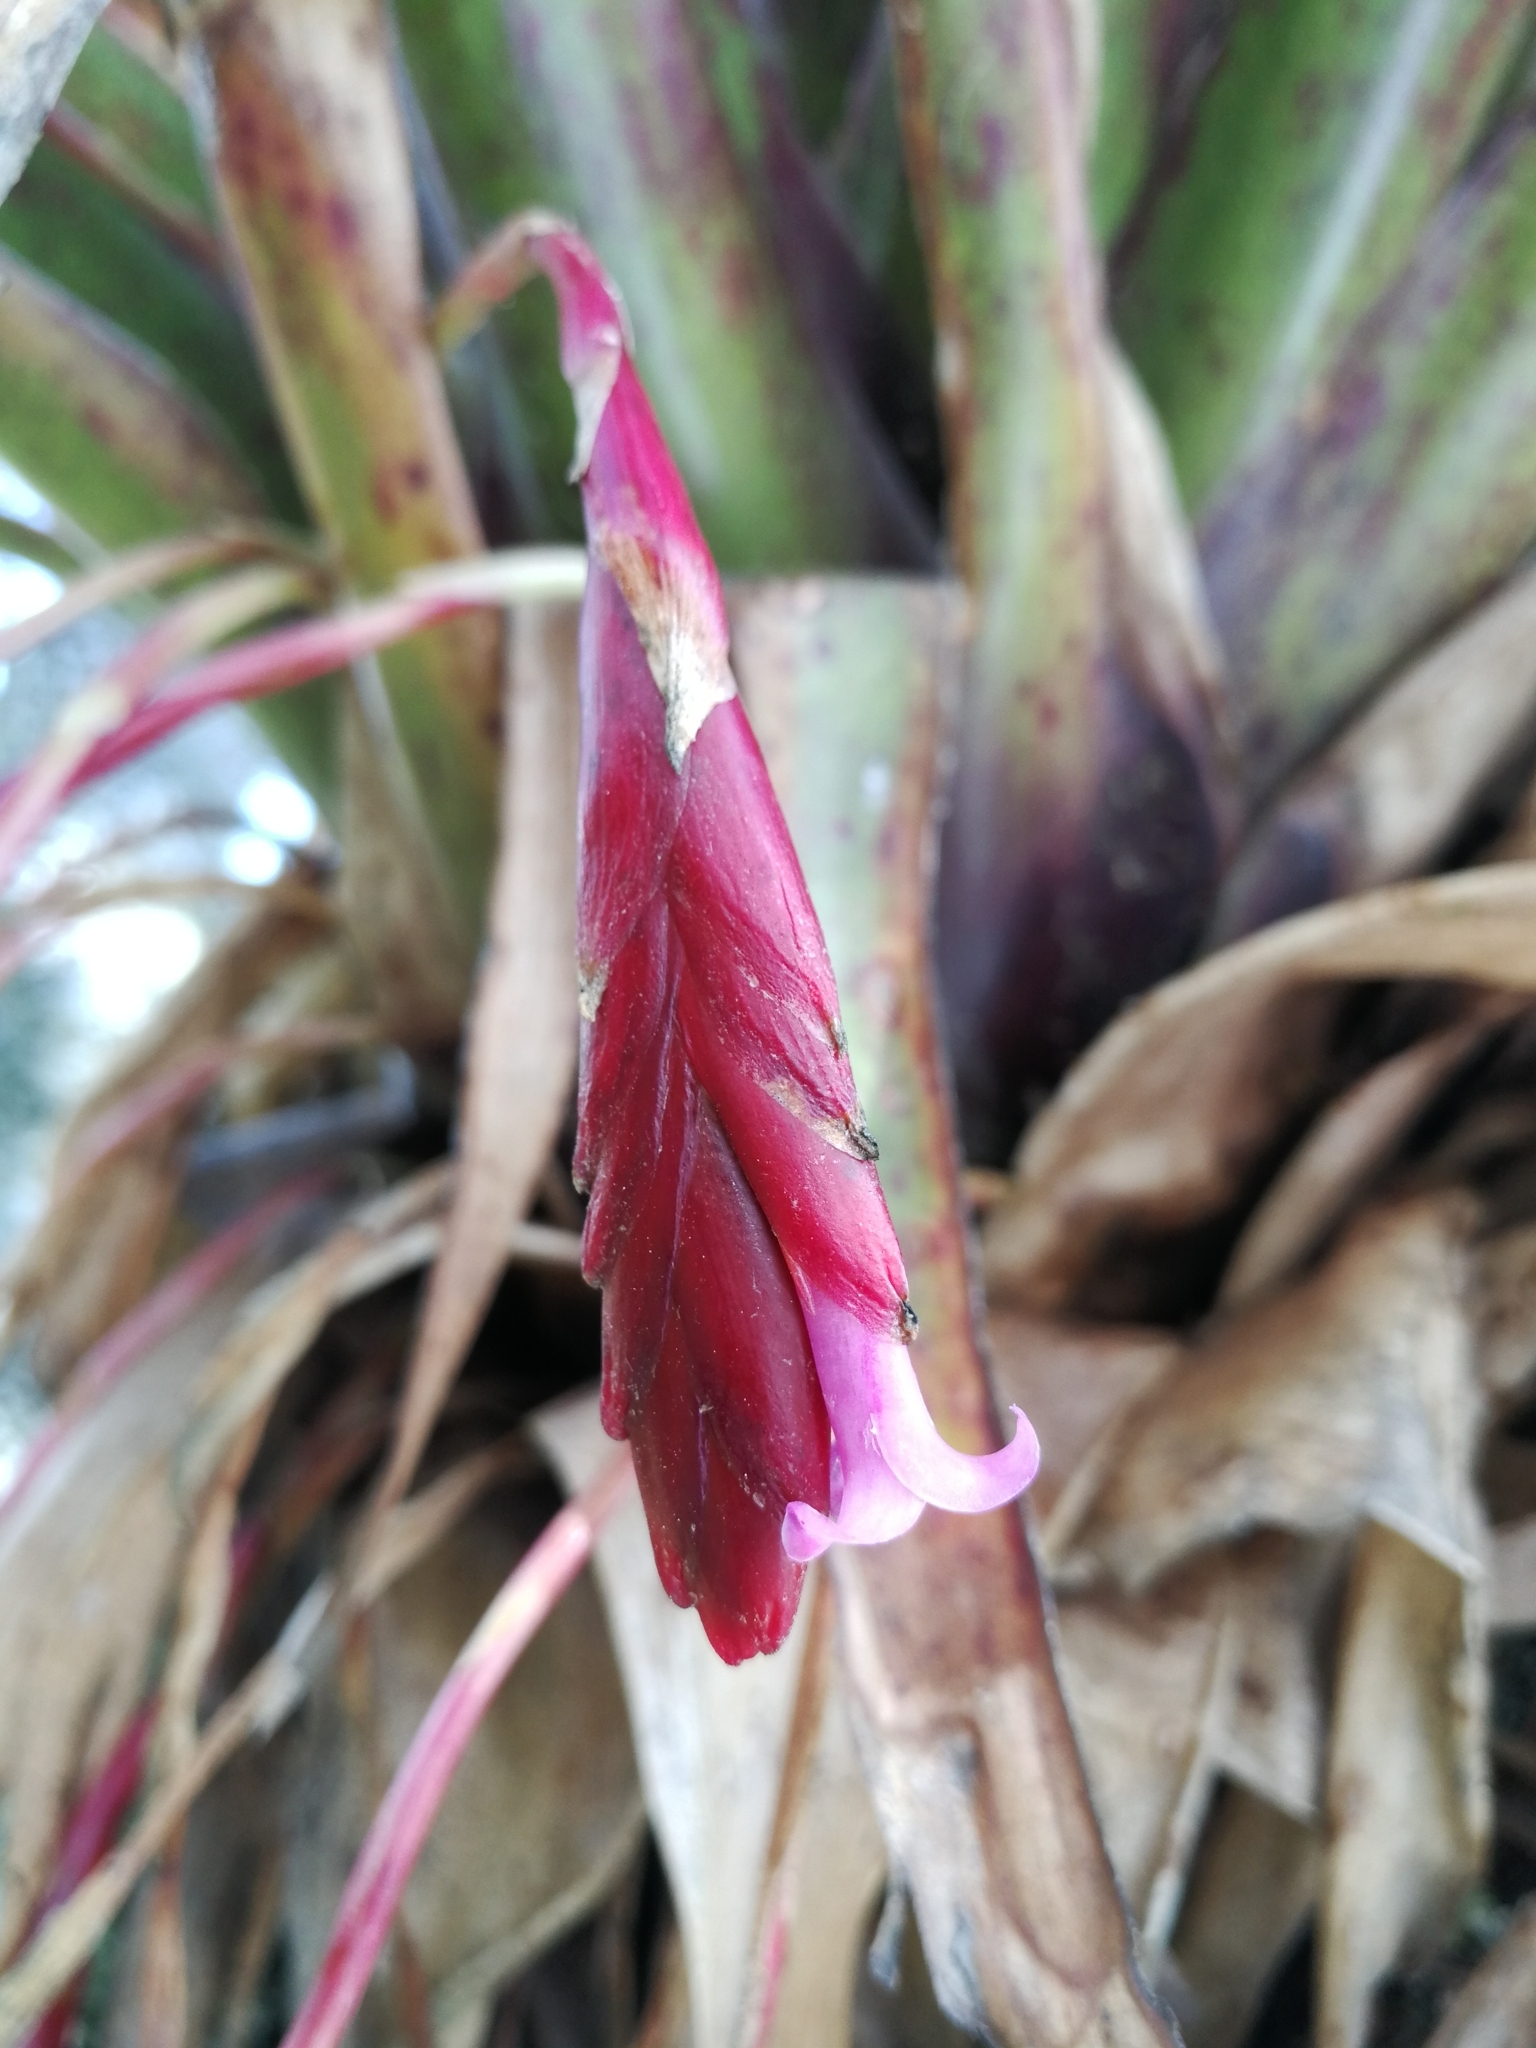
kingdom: Plantae
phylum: Tracheophyta
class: Liliopsida
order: Poales
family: Bromeliaceae
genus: Tillandsia
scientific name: Tillandsia complanata
